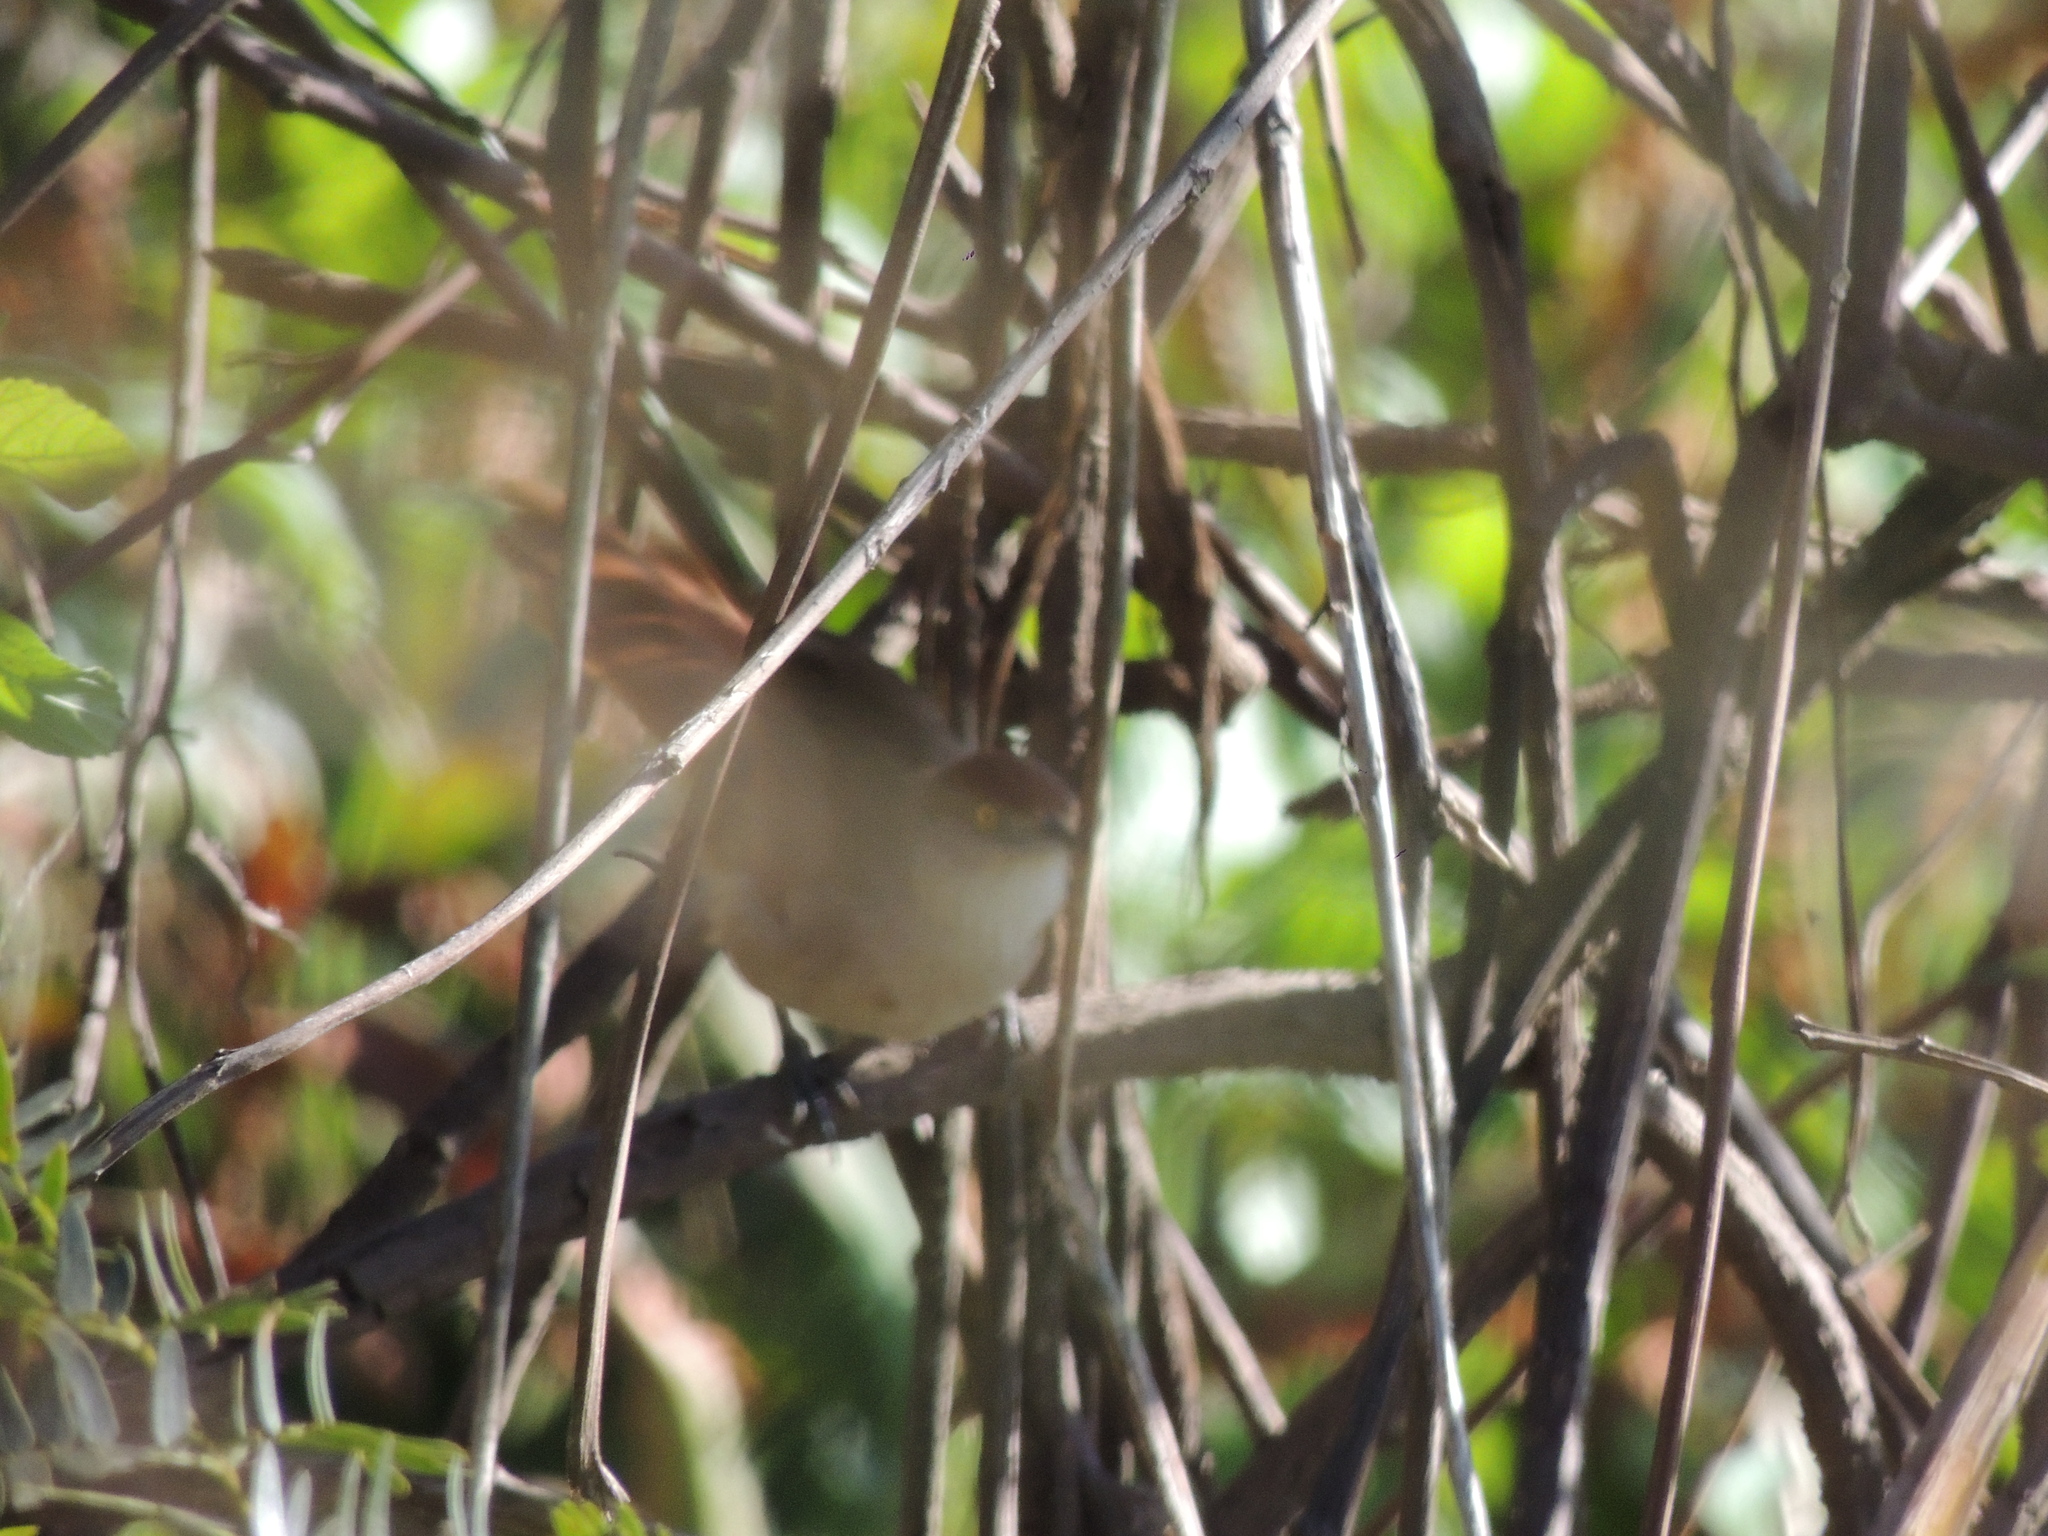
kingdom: Animalia
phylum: Chordata
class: Aves
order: Passeriformes
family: Furnariidae
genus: Phacellodomus
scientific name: Phacellodomus ruber
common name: Greater thornbird
